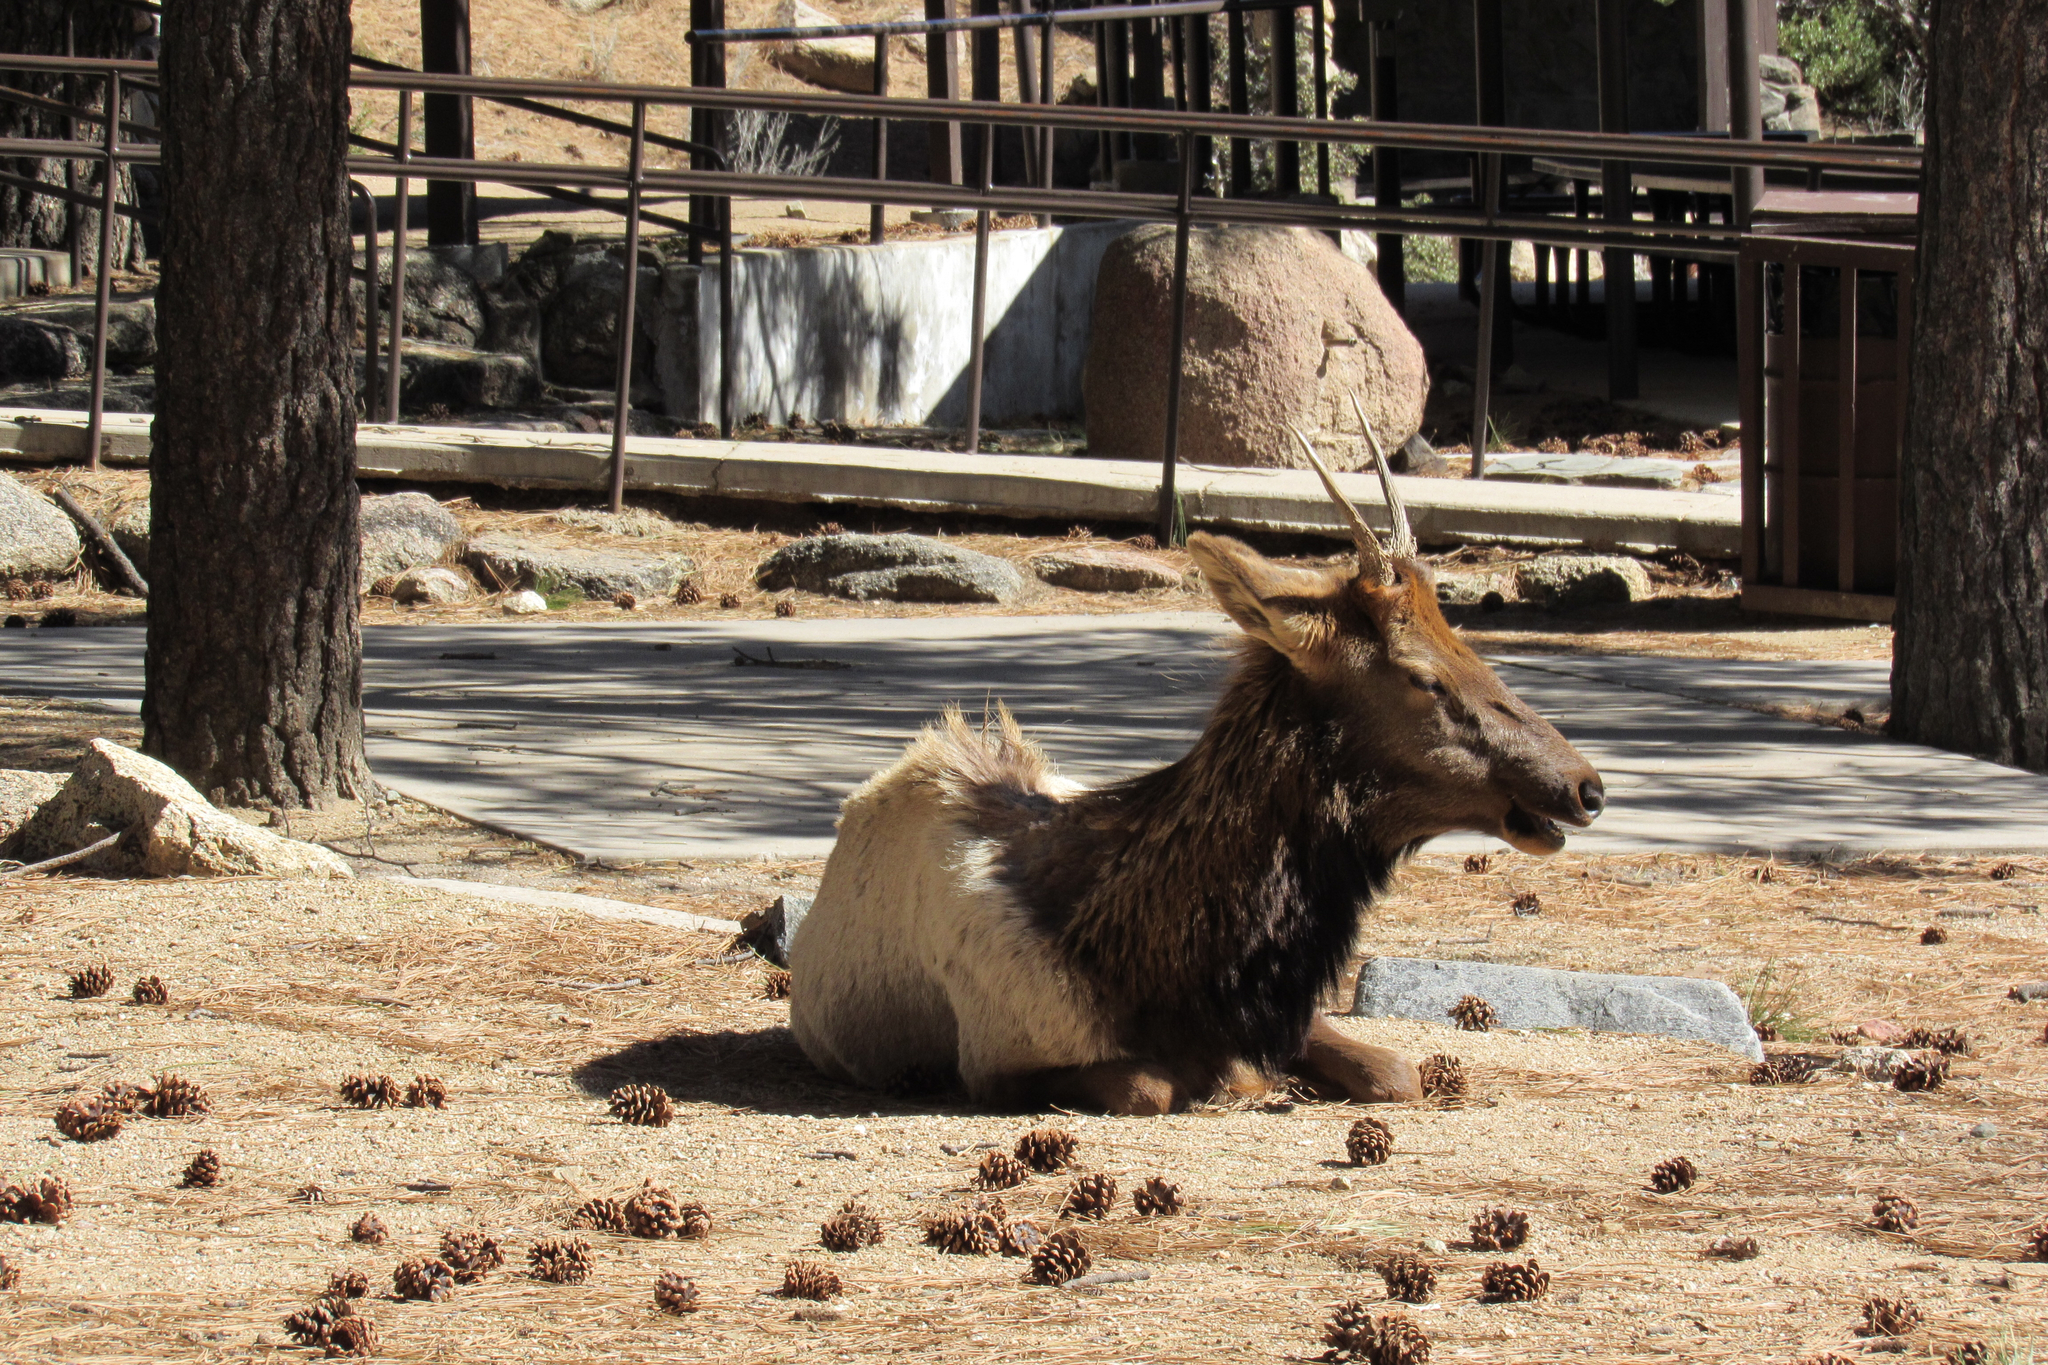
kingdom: Animalia
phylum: Chordata
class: Mammalia
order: Artiodactyla
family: Cervidae
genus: Cervus
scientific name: Cervus elaphus
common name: Red deer
